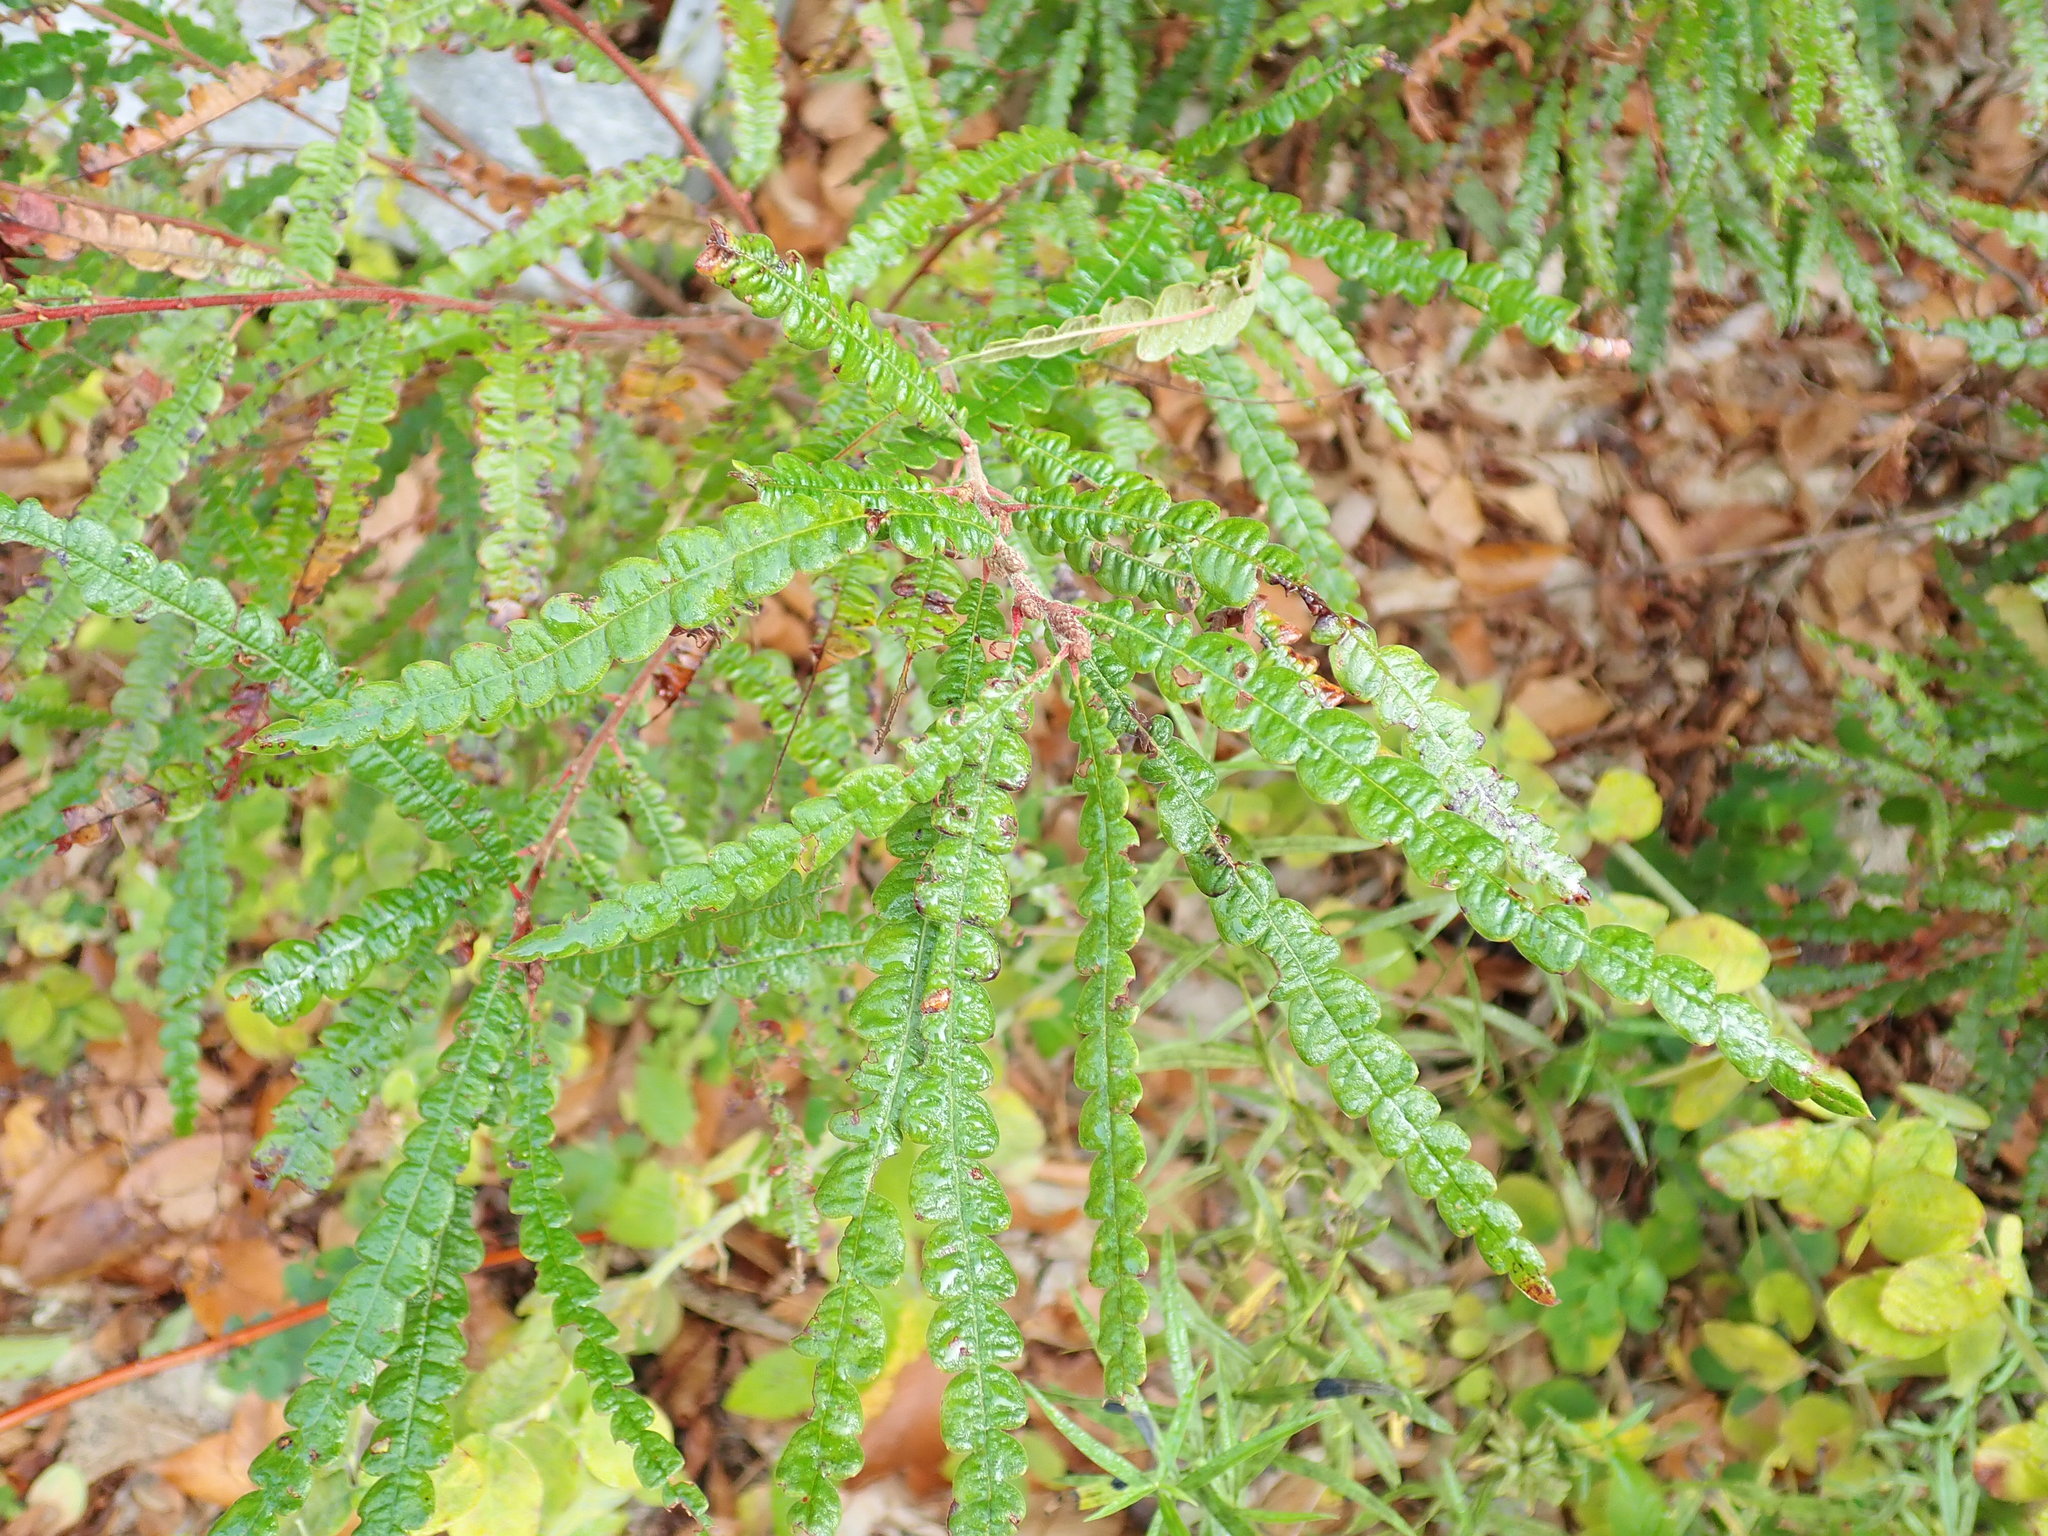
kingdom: Plantae
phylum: Tracheophyta
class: Magnoliopsida
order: Fagales
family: Myricaceae
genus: Comptonia
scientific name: Comptonia peregrina
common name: Sweet-fern
